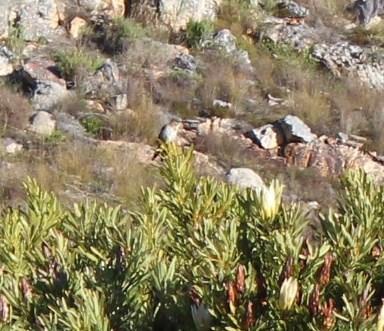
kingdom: Animalia
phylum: Chordata
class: Aves
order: Passeriformes
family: Promeropidae
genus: Promerops
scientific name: Promerops cafer
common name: Cape sugarbird
